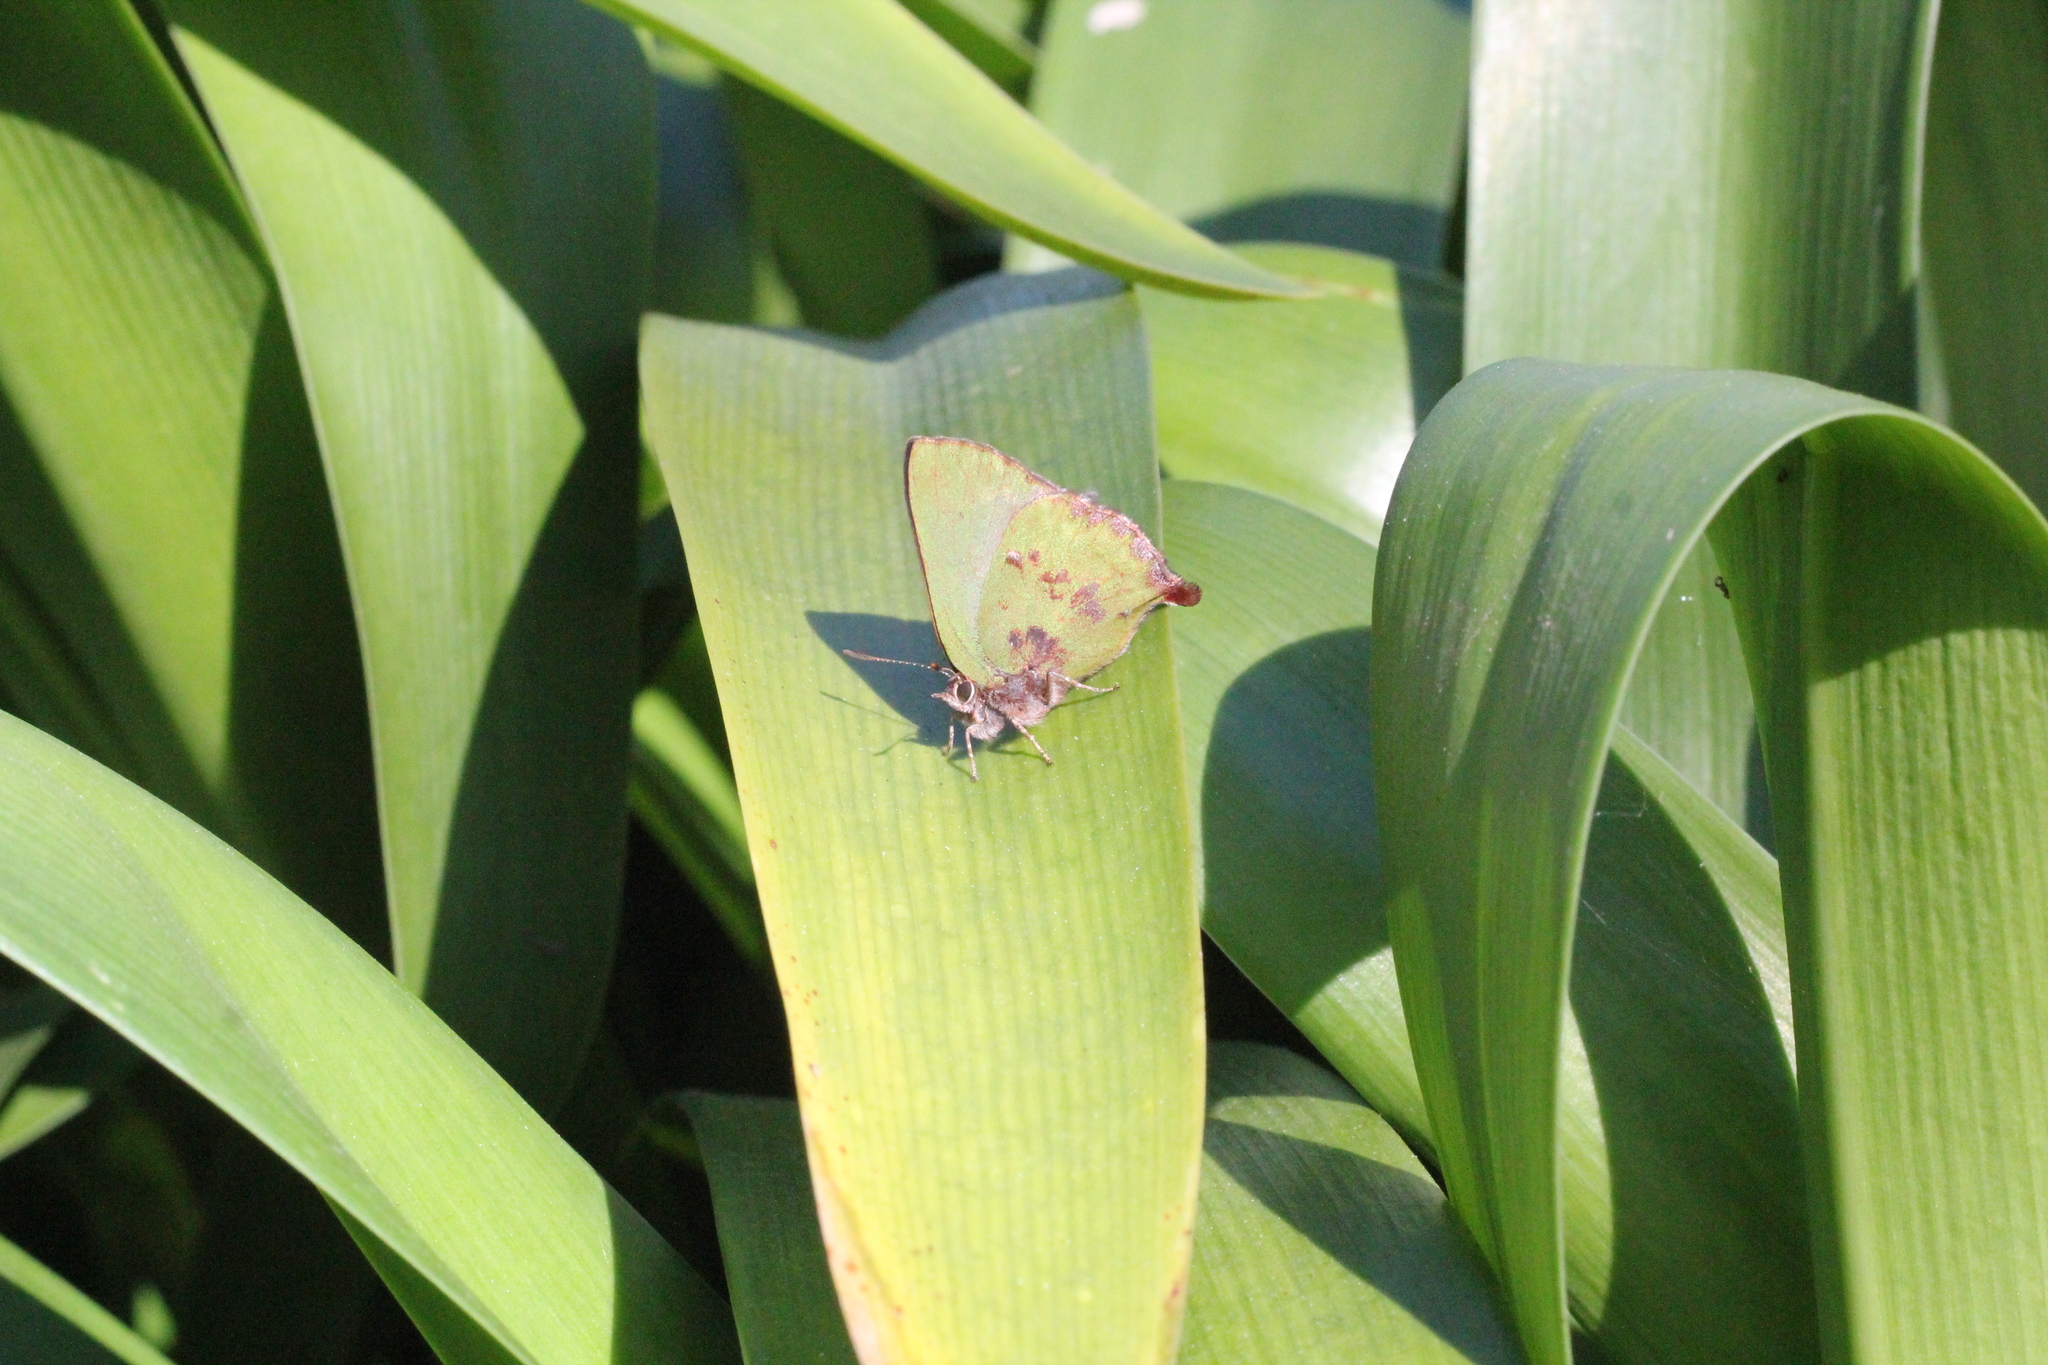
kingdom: Animalia
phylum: Arthropoda
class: Insecta
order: Lepidoptera
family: Lycaenidae
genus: Cyanophrys
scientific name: Cyanophrys
